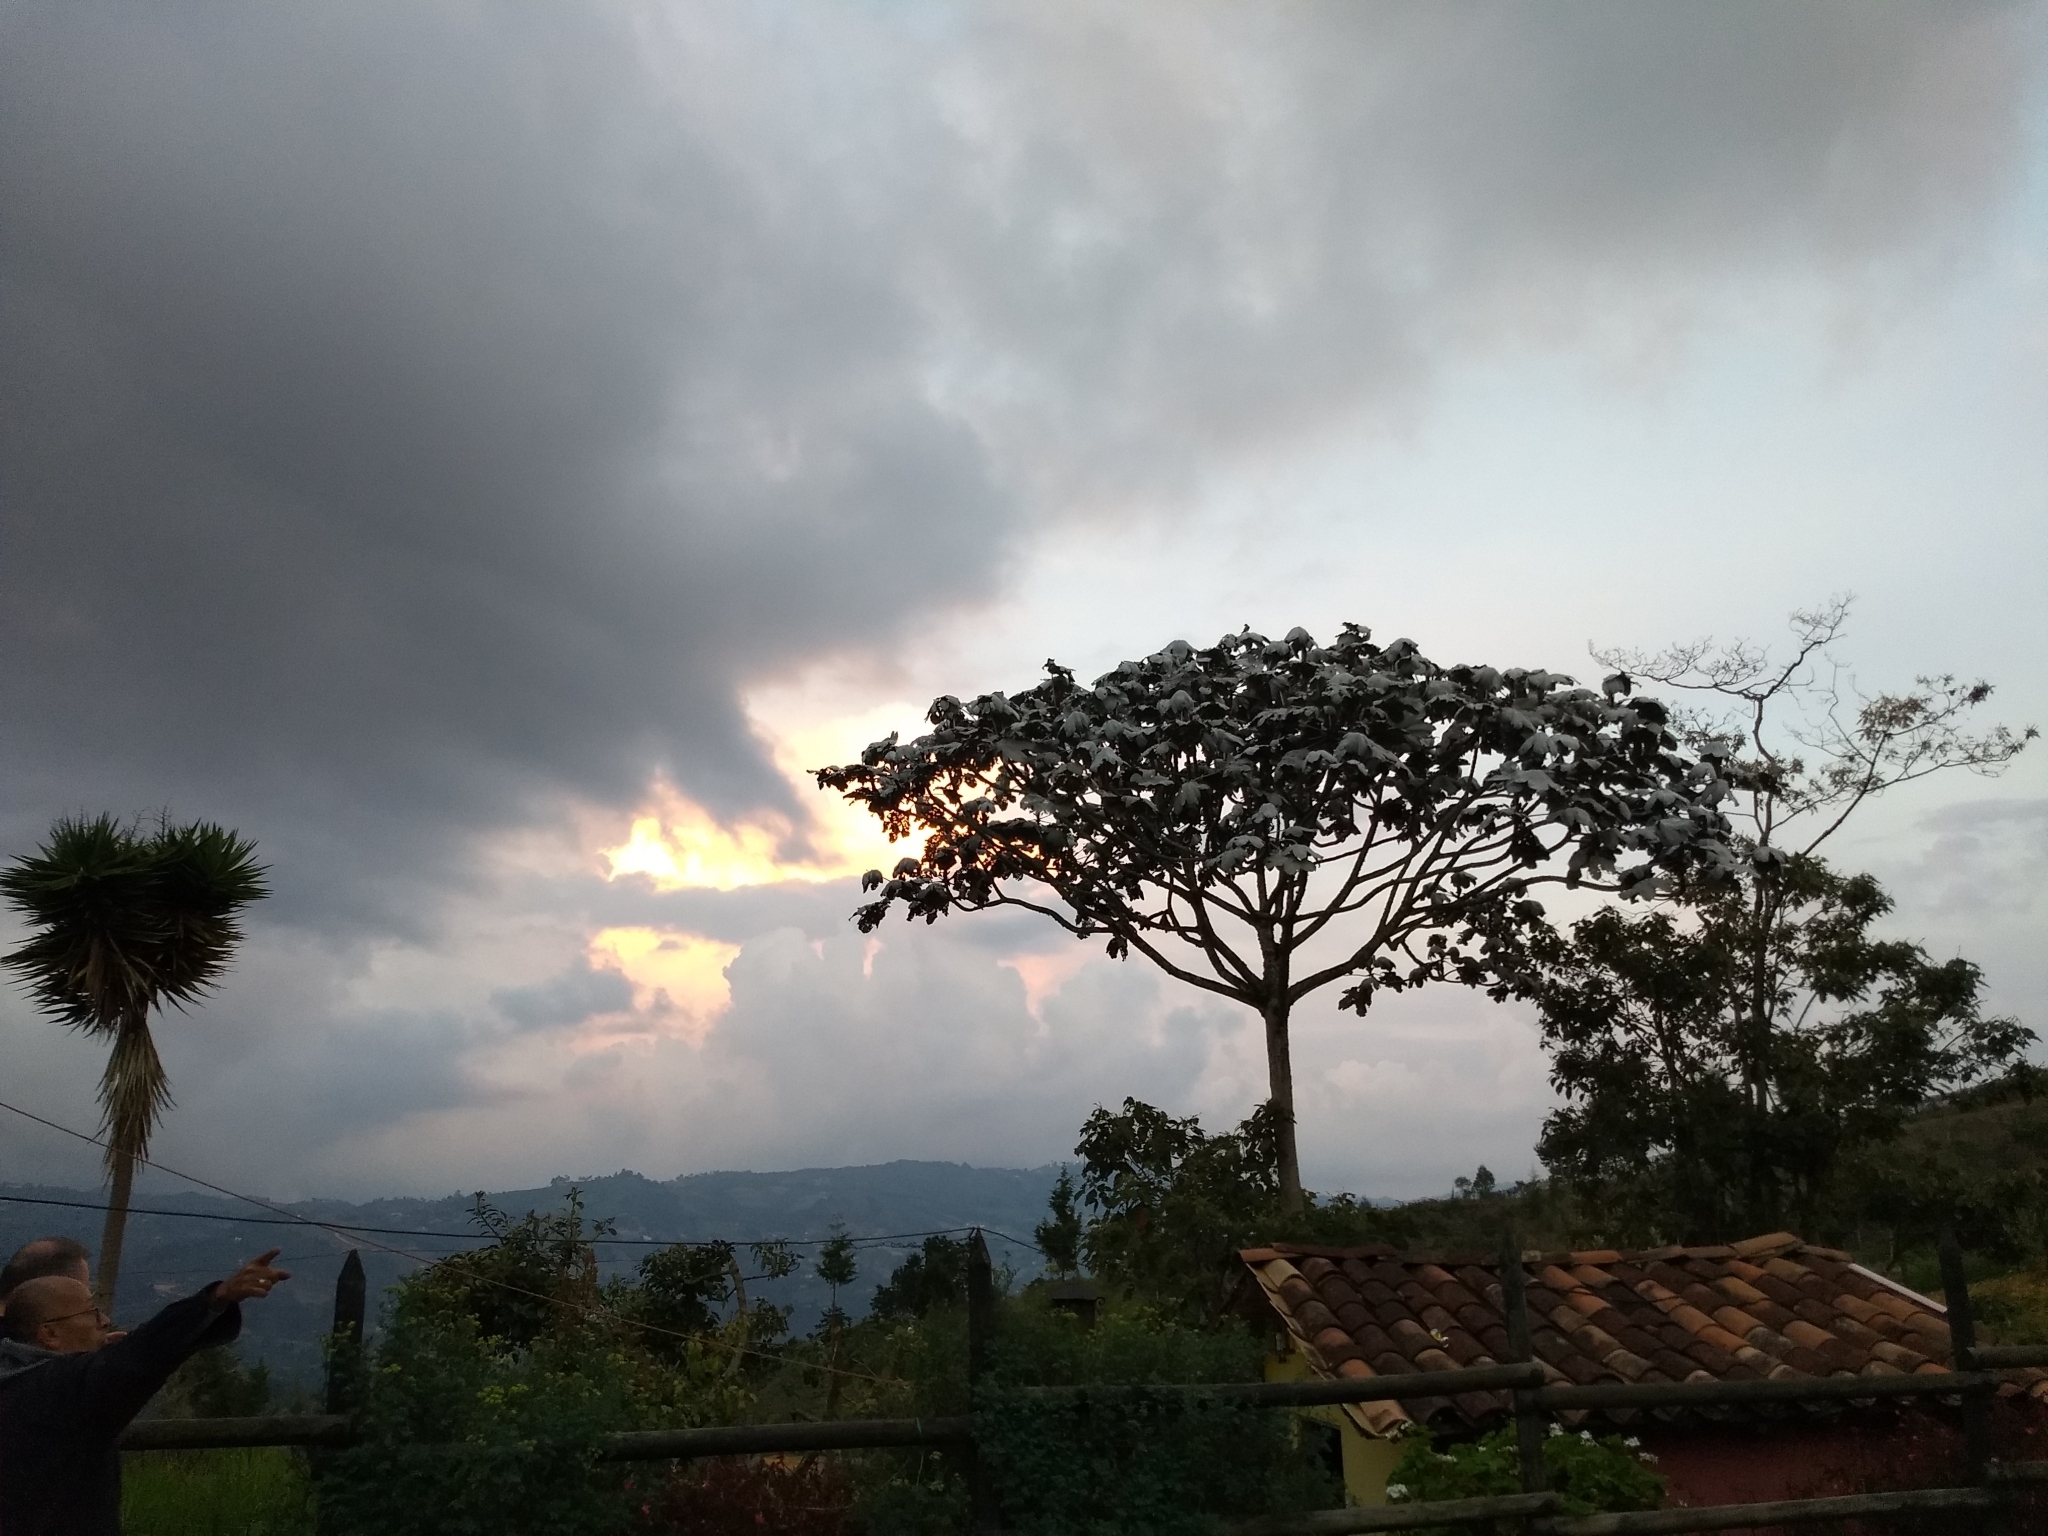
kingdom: Plantae
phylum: Tracheophyta
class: Magnoliopsida
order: Rosales
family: Urticaceae
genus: Cecropia
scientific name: Cecropia telenitida
